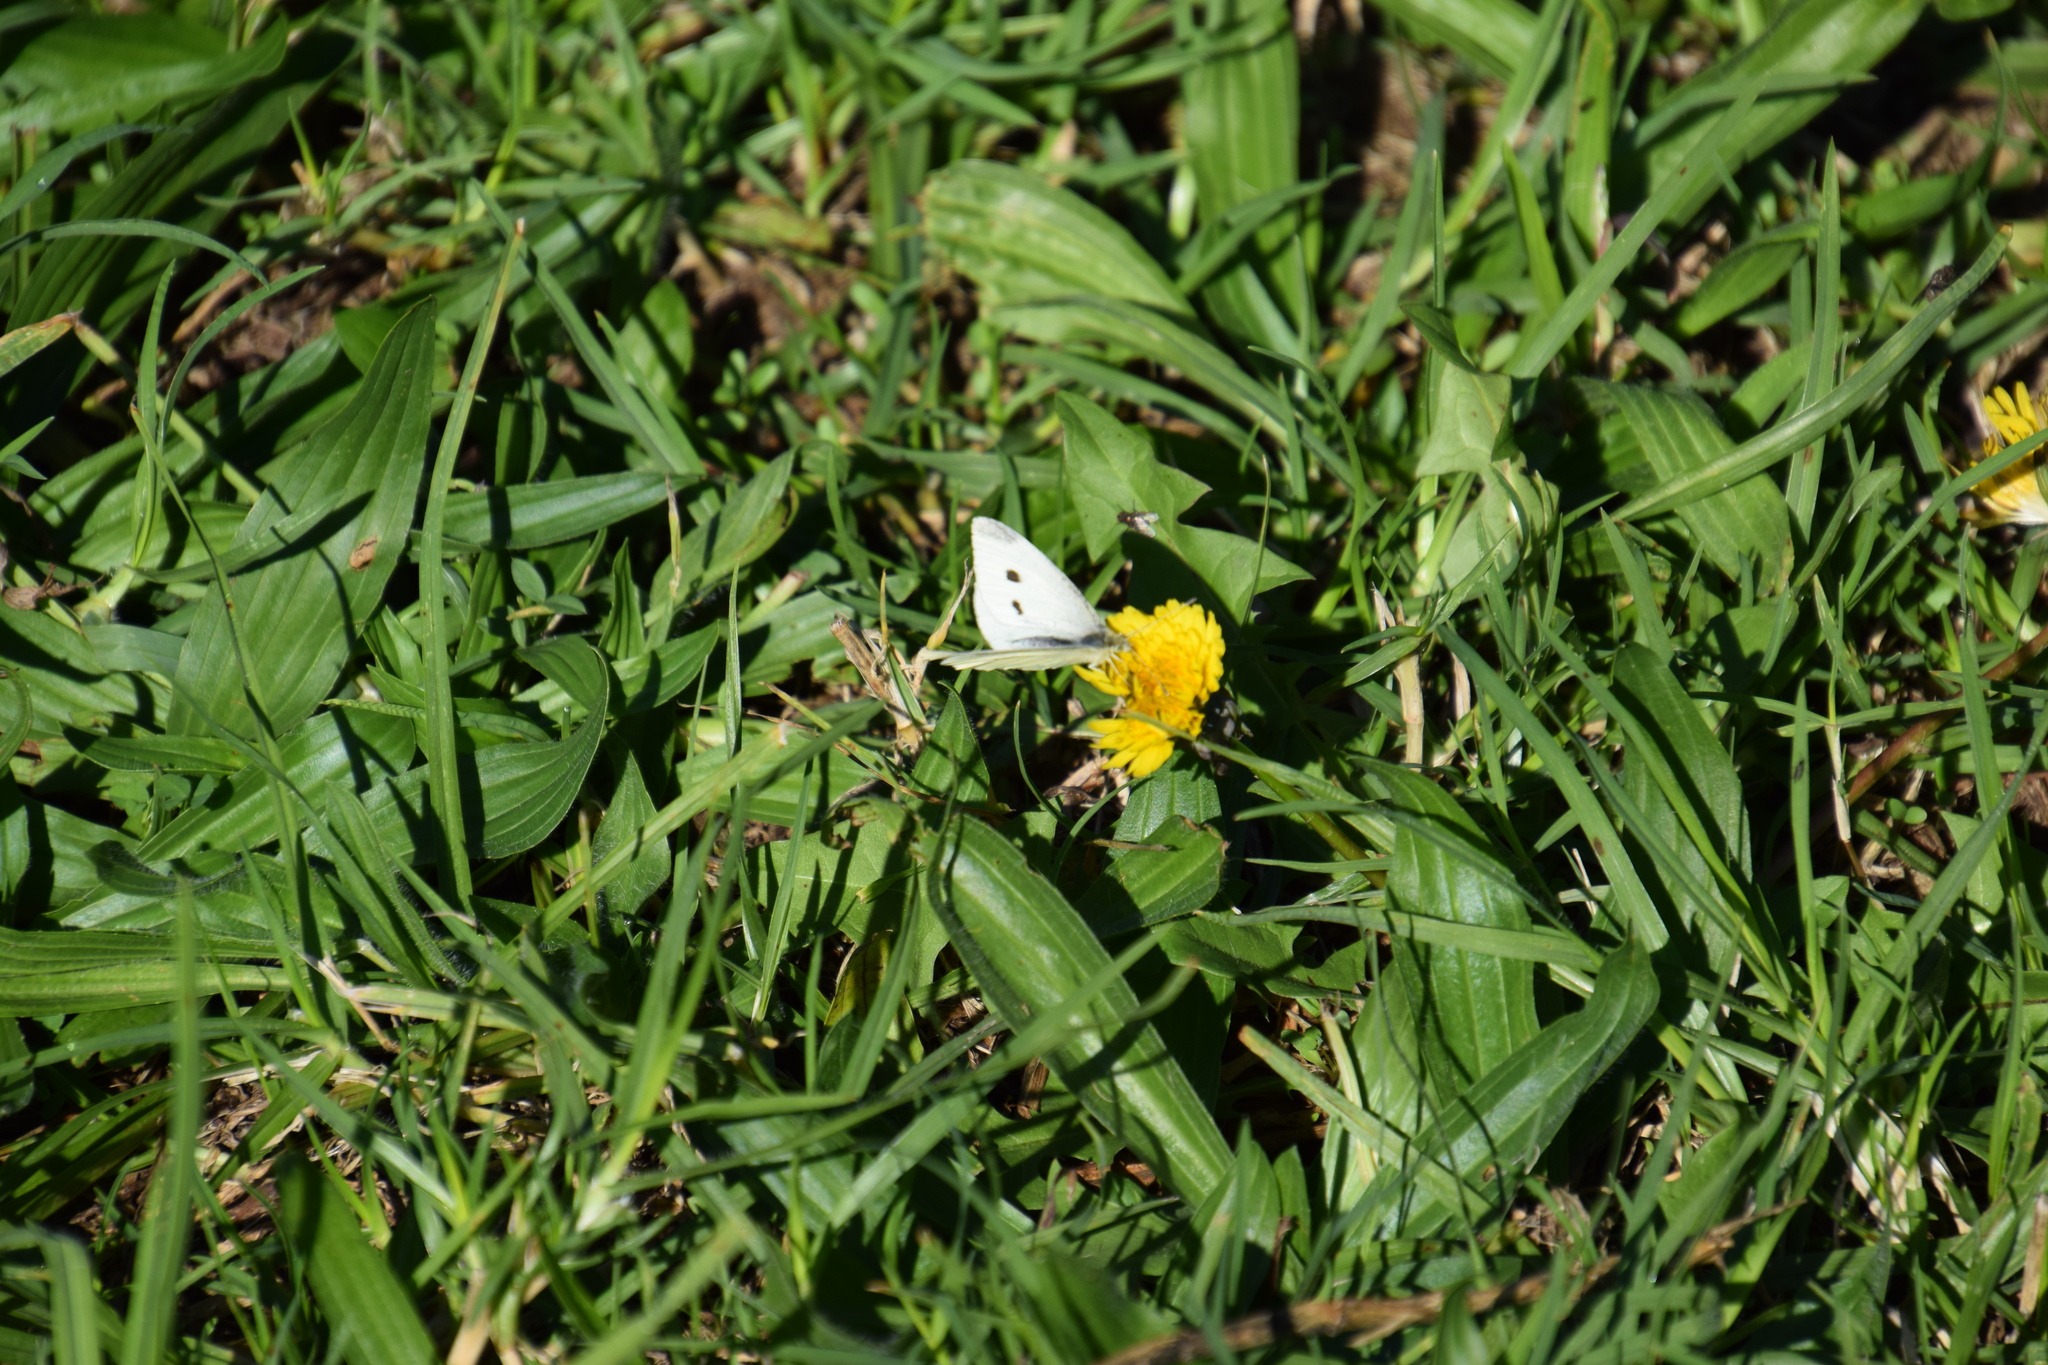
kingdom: Animalia
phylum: Arthropoda
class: Insecta
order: Lepidoptera
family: Pieridae
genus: Pieris
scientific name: Pieris rapae
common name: Small white
